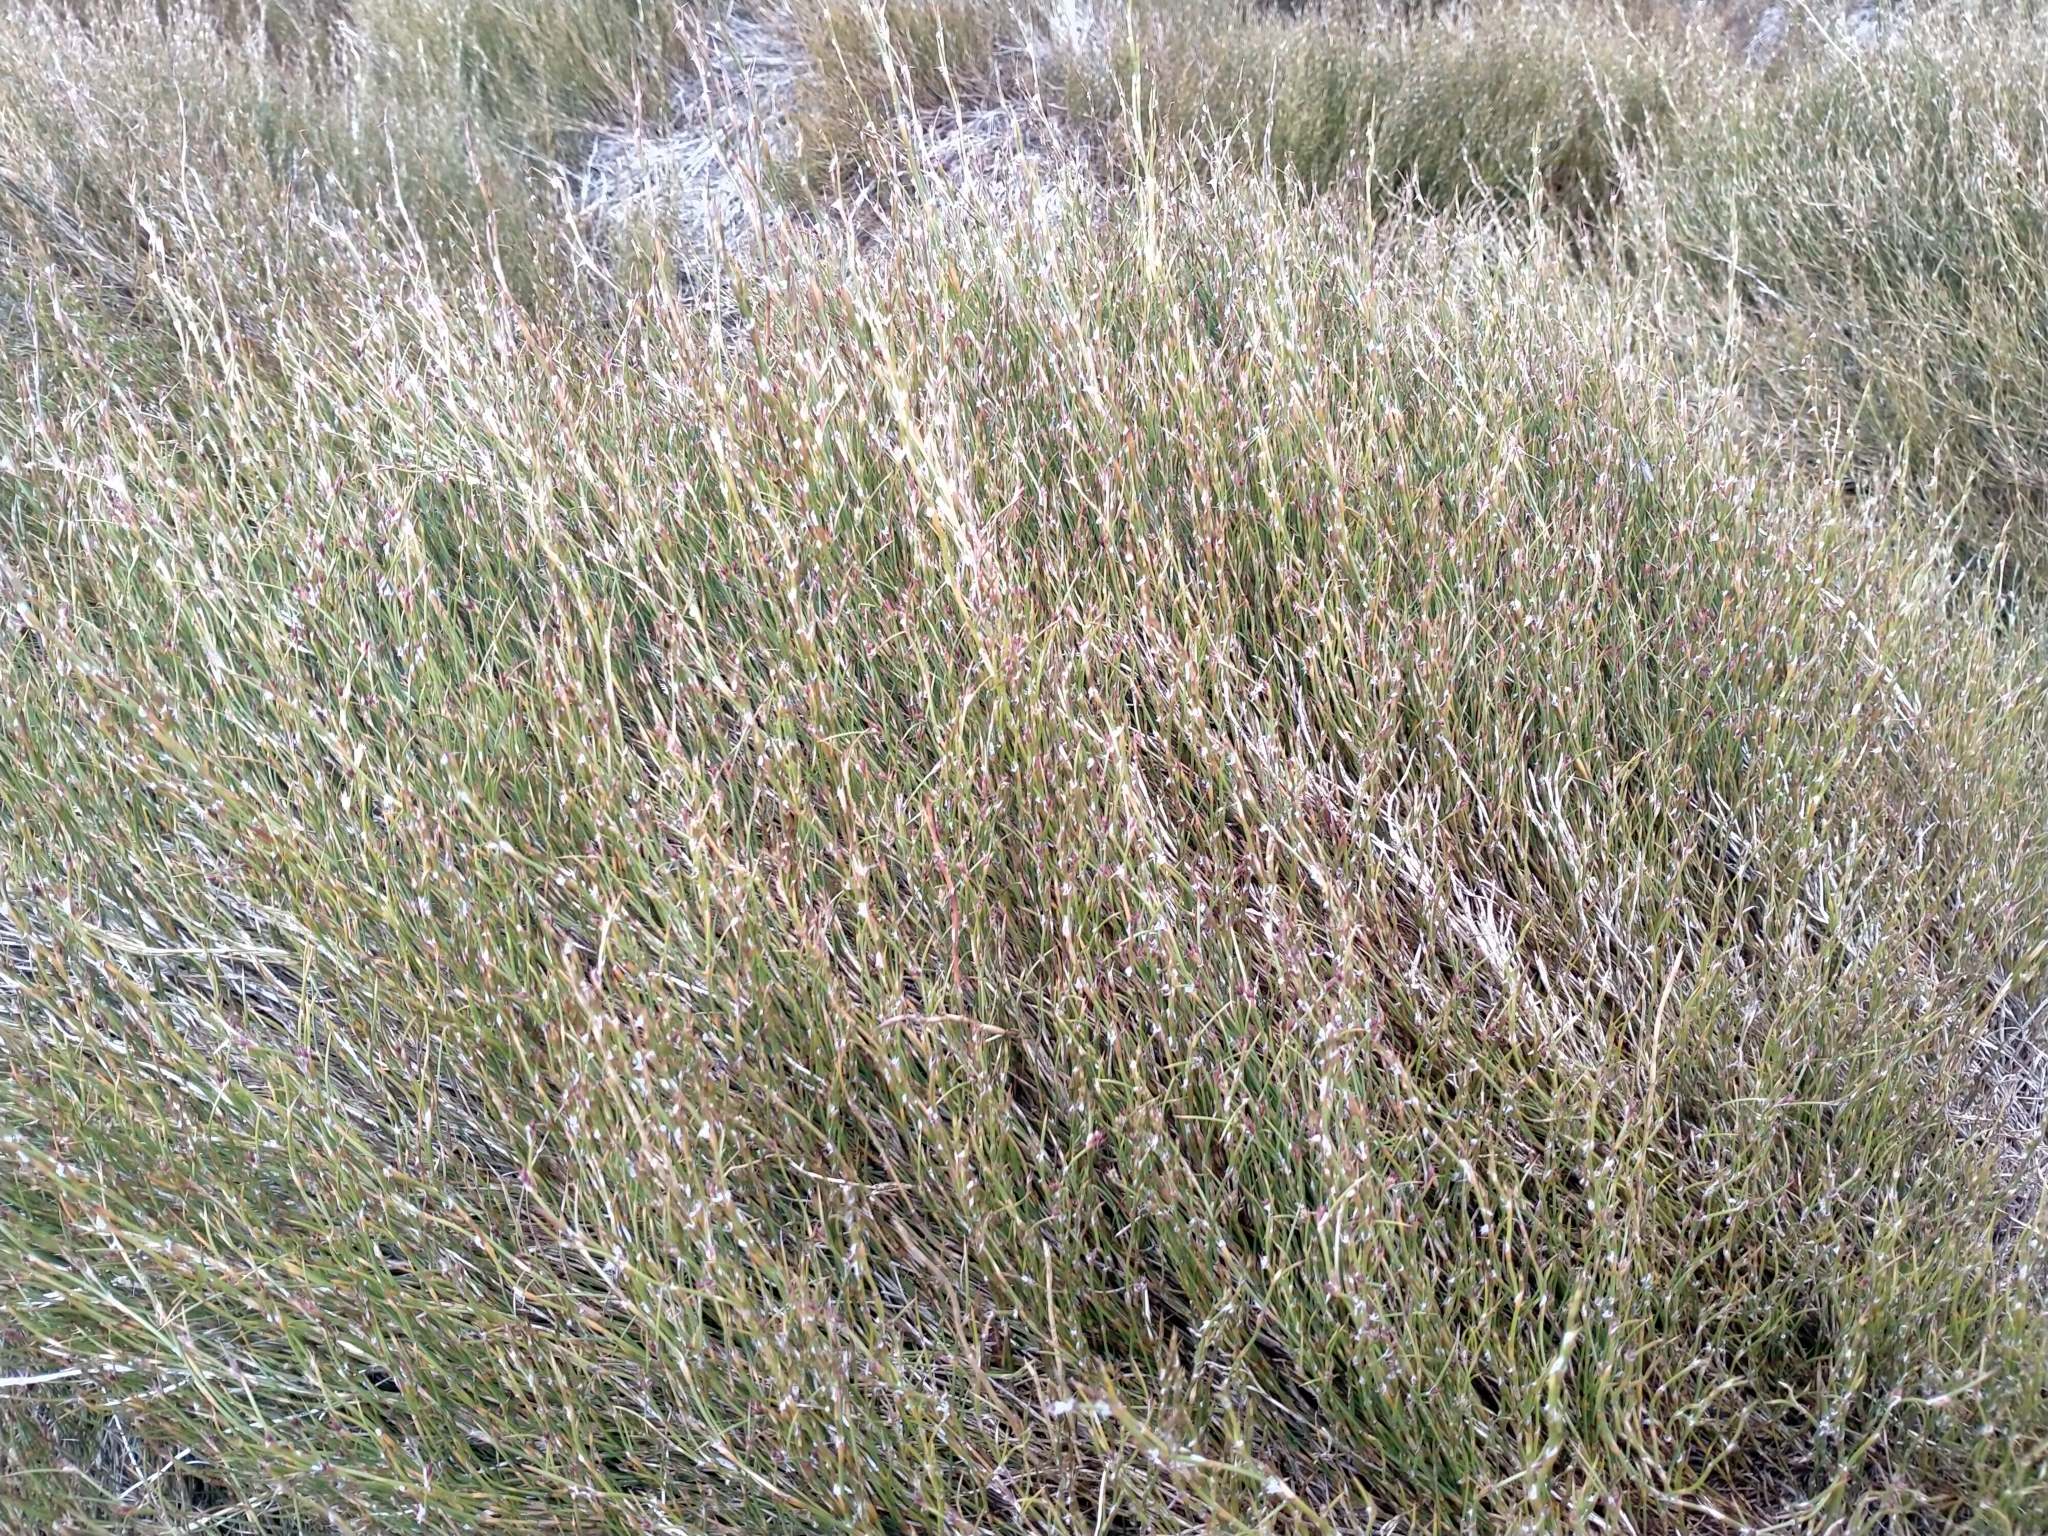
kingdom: Plantae
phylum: Tracheophyta
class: Liliopsida
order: Poales
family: Restionaceae
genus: Empodisma
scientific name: Empodisma minus
